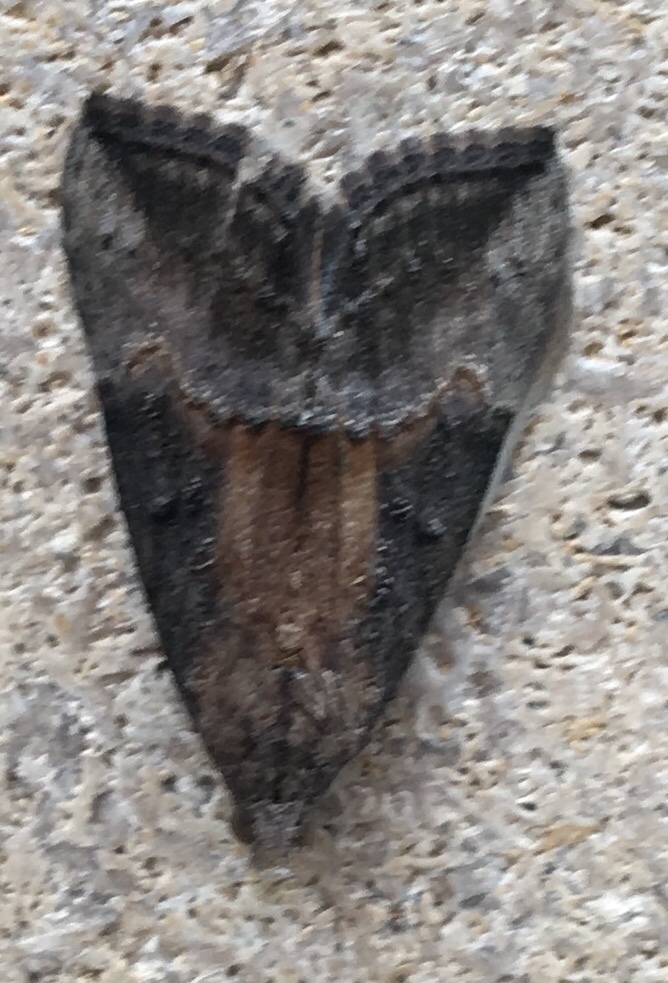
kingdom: Animalia
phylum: Arthropoda
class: Insecta
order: Lepidoptera
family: Erebidae
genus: Hypena
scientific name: Hypena scabra
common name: Green cloverworm
